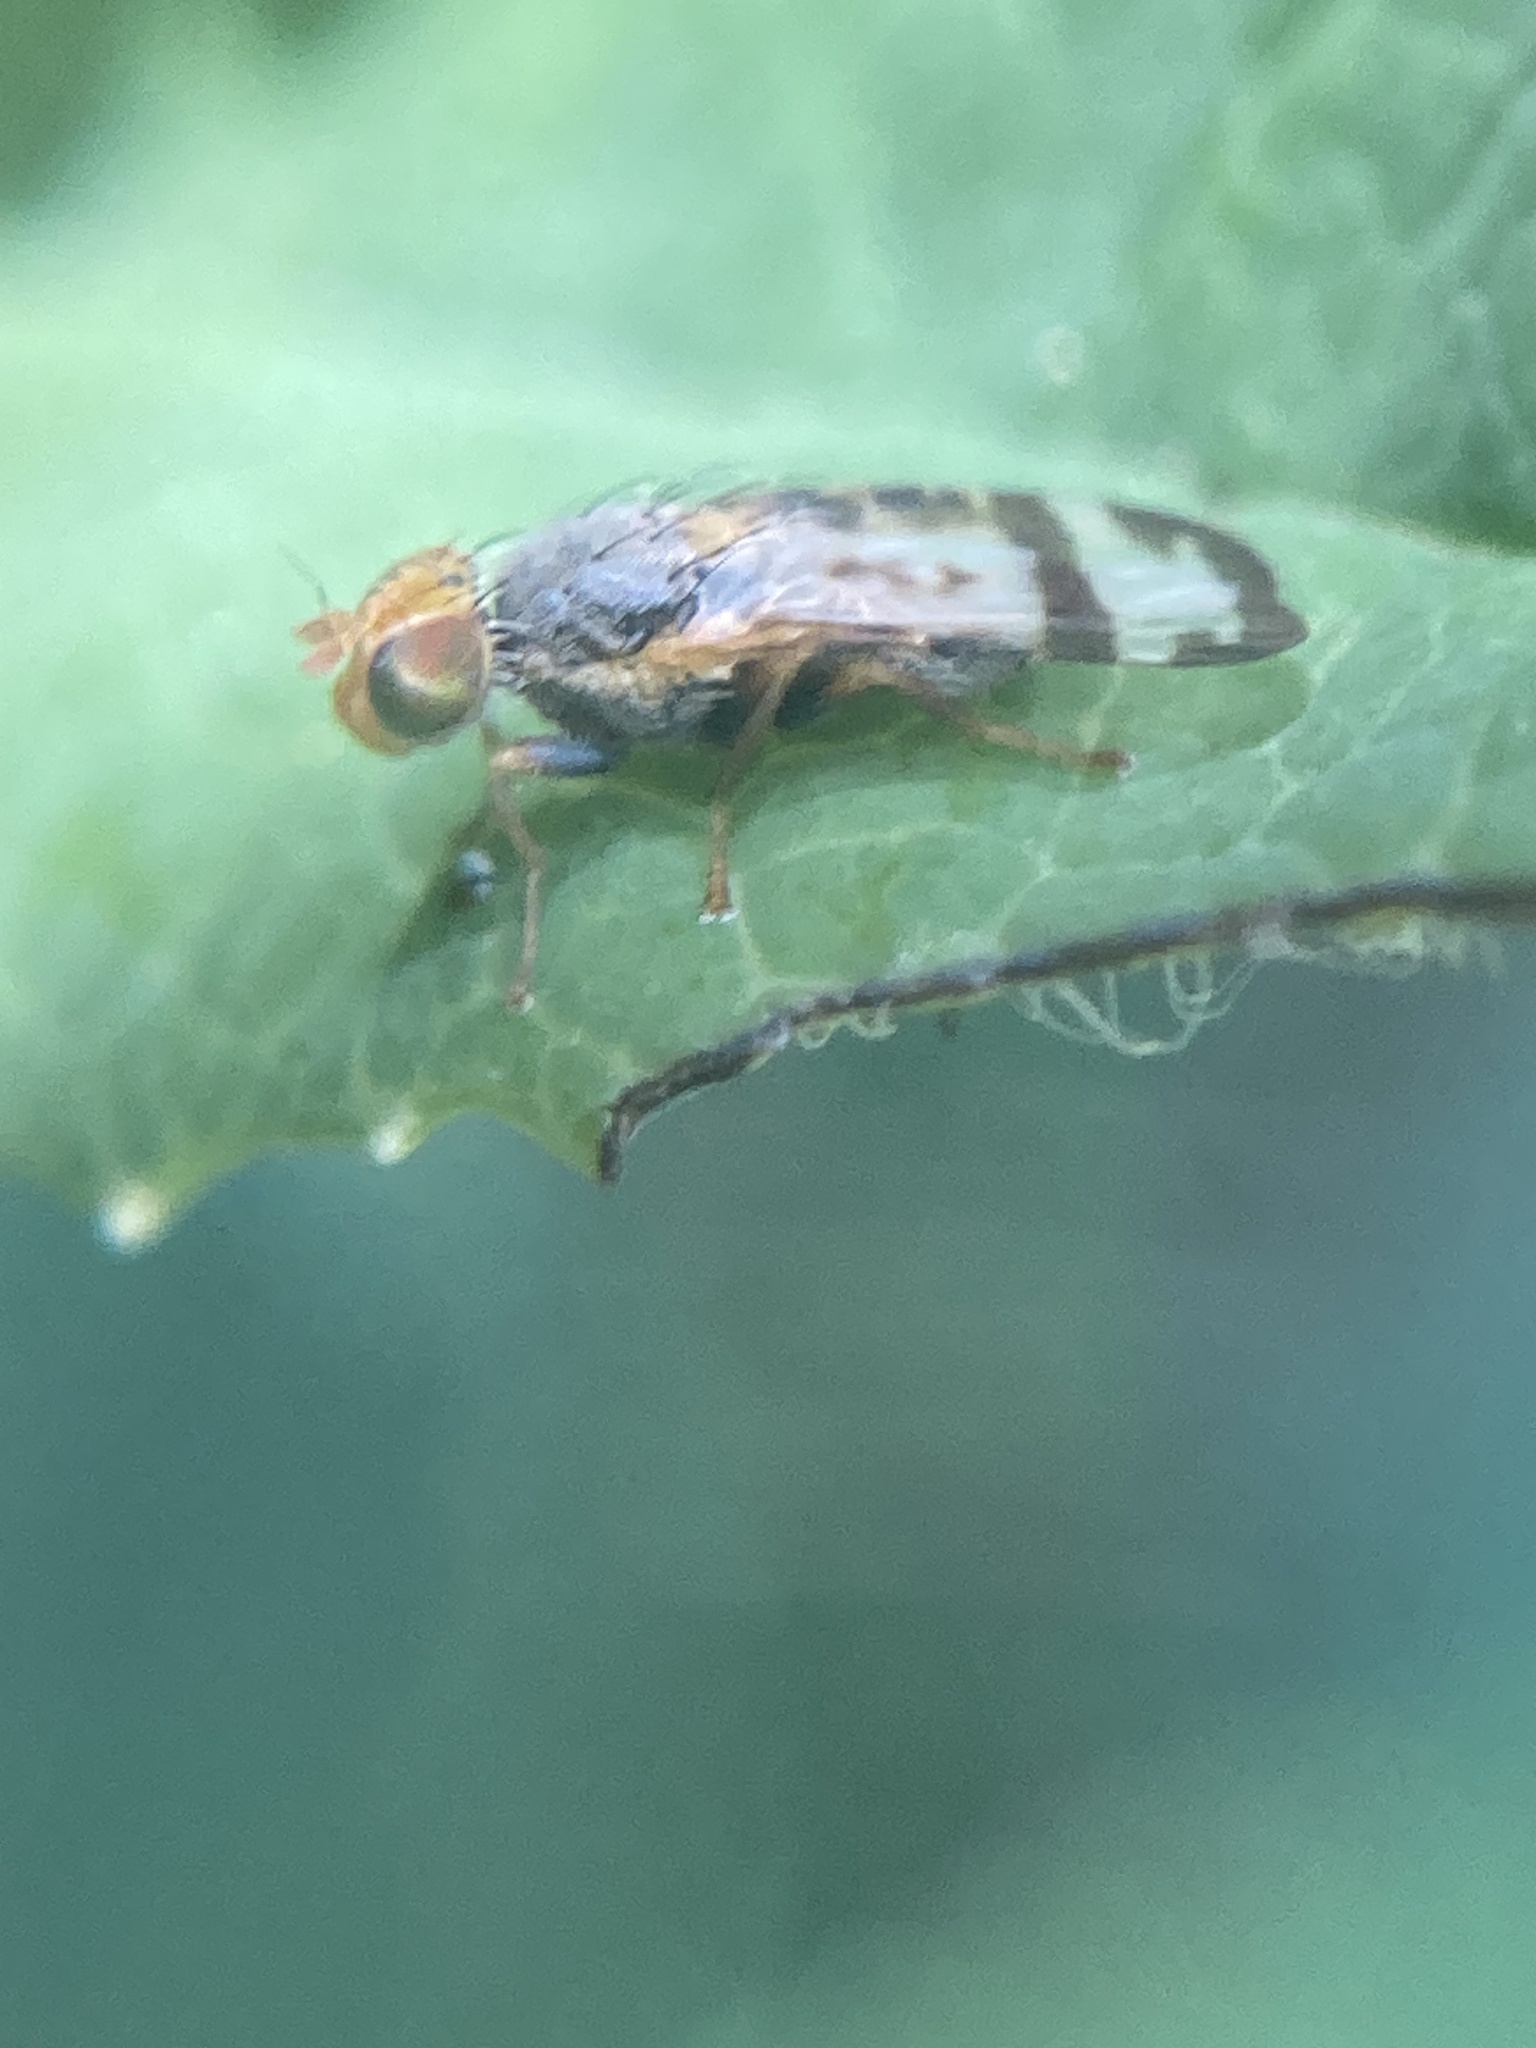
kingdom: Animalia
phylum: Arthropoda
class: Insecta
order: Diptera
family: Tephritidae
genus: Sphenella
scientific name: Sphenella ruficeps
